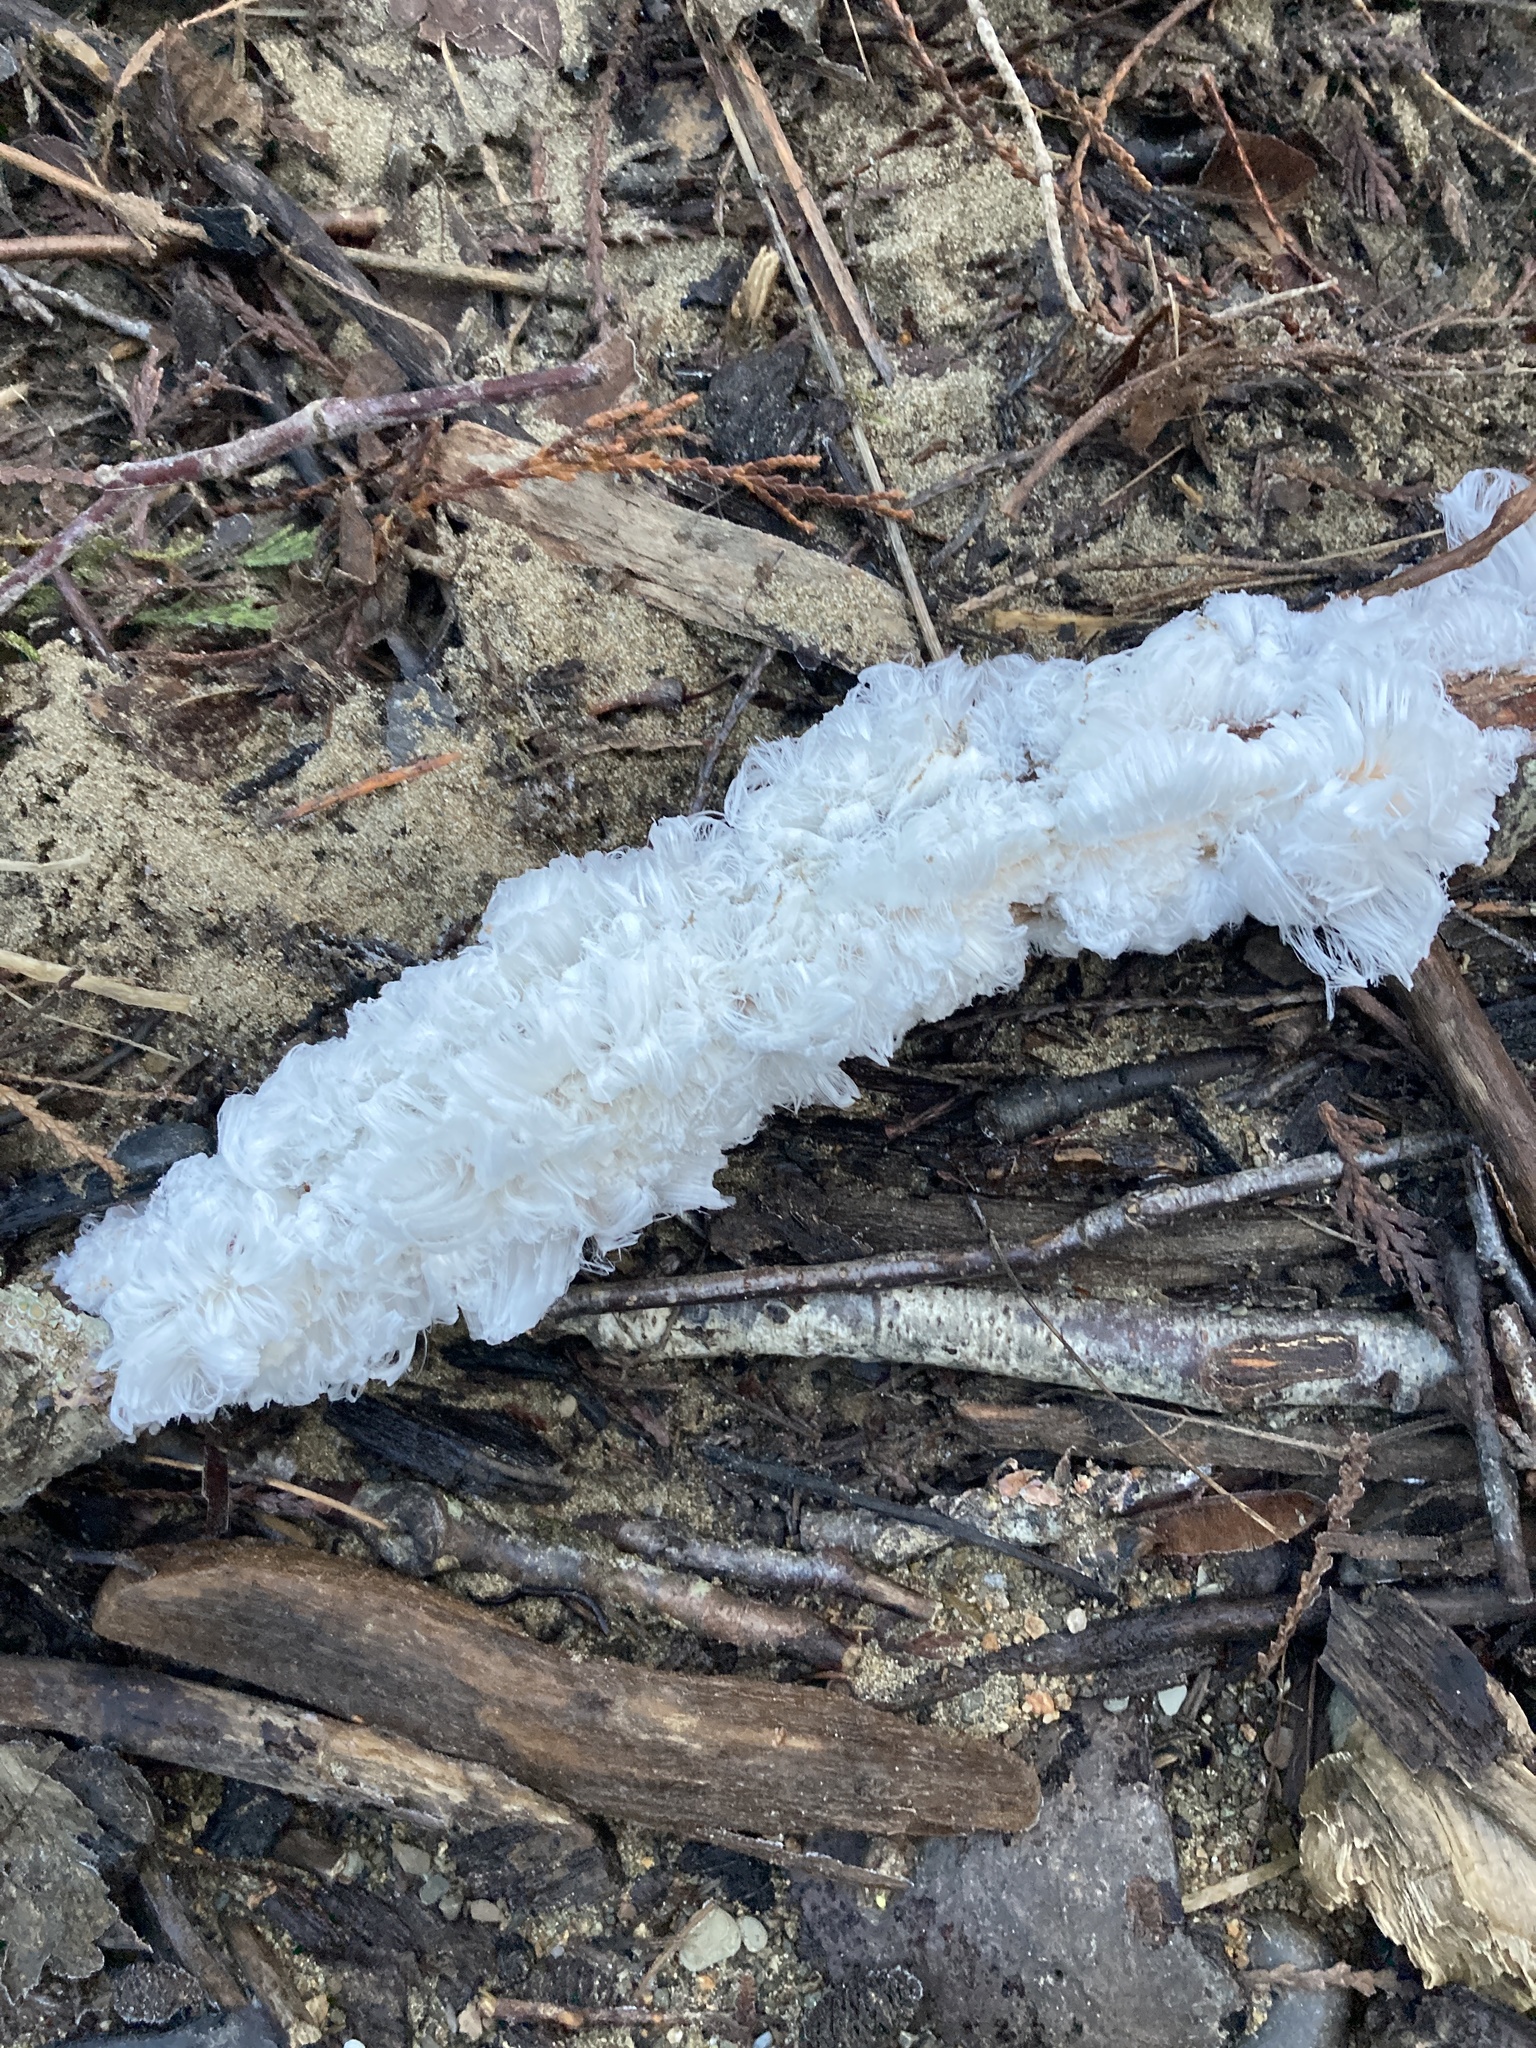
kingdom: Fungi
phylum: Basidiomycota
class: Agaricomycetes
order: Auriculariales
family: Auriculariaceae
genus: Exidiopsis
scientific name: Exidiopsis effusa
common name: Hair ice crust
